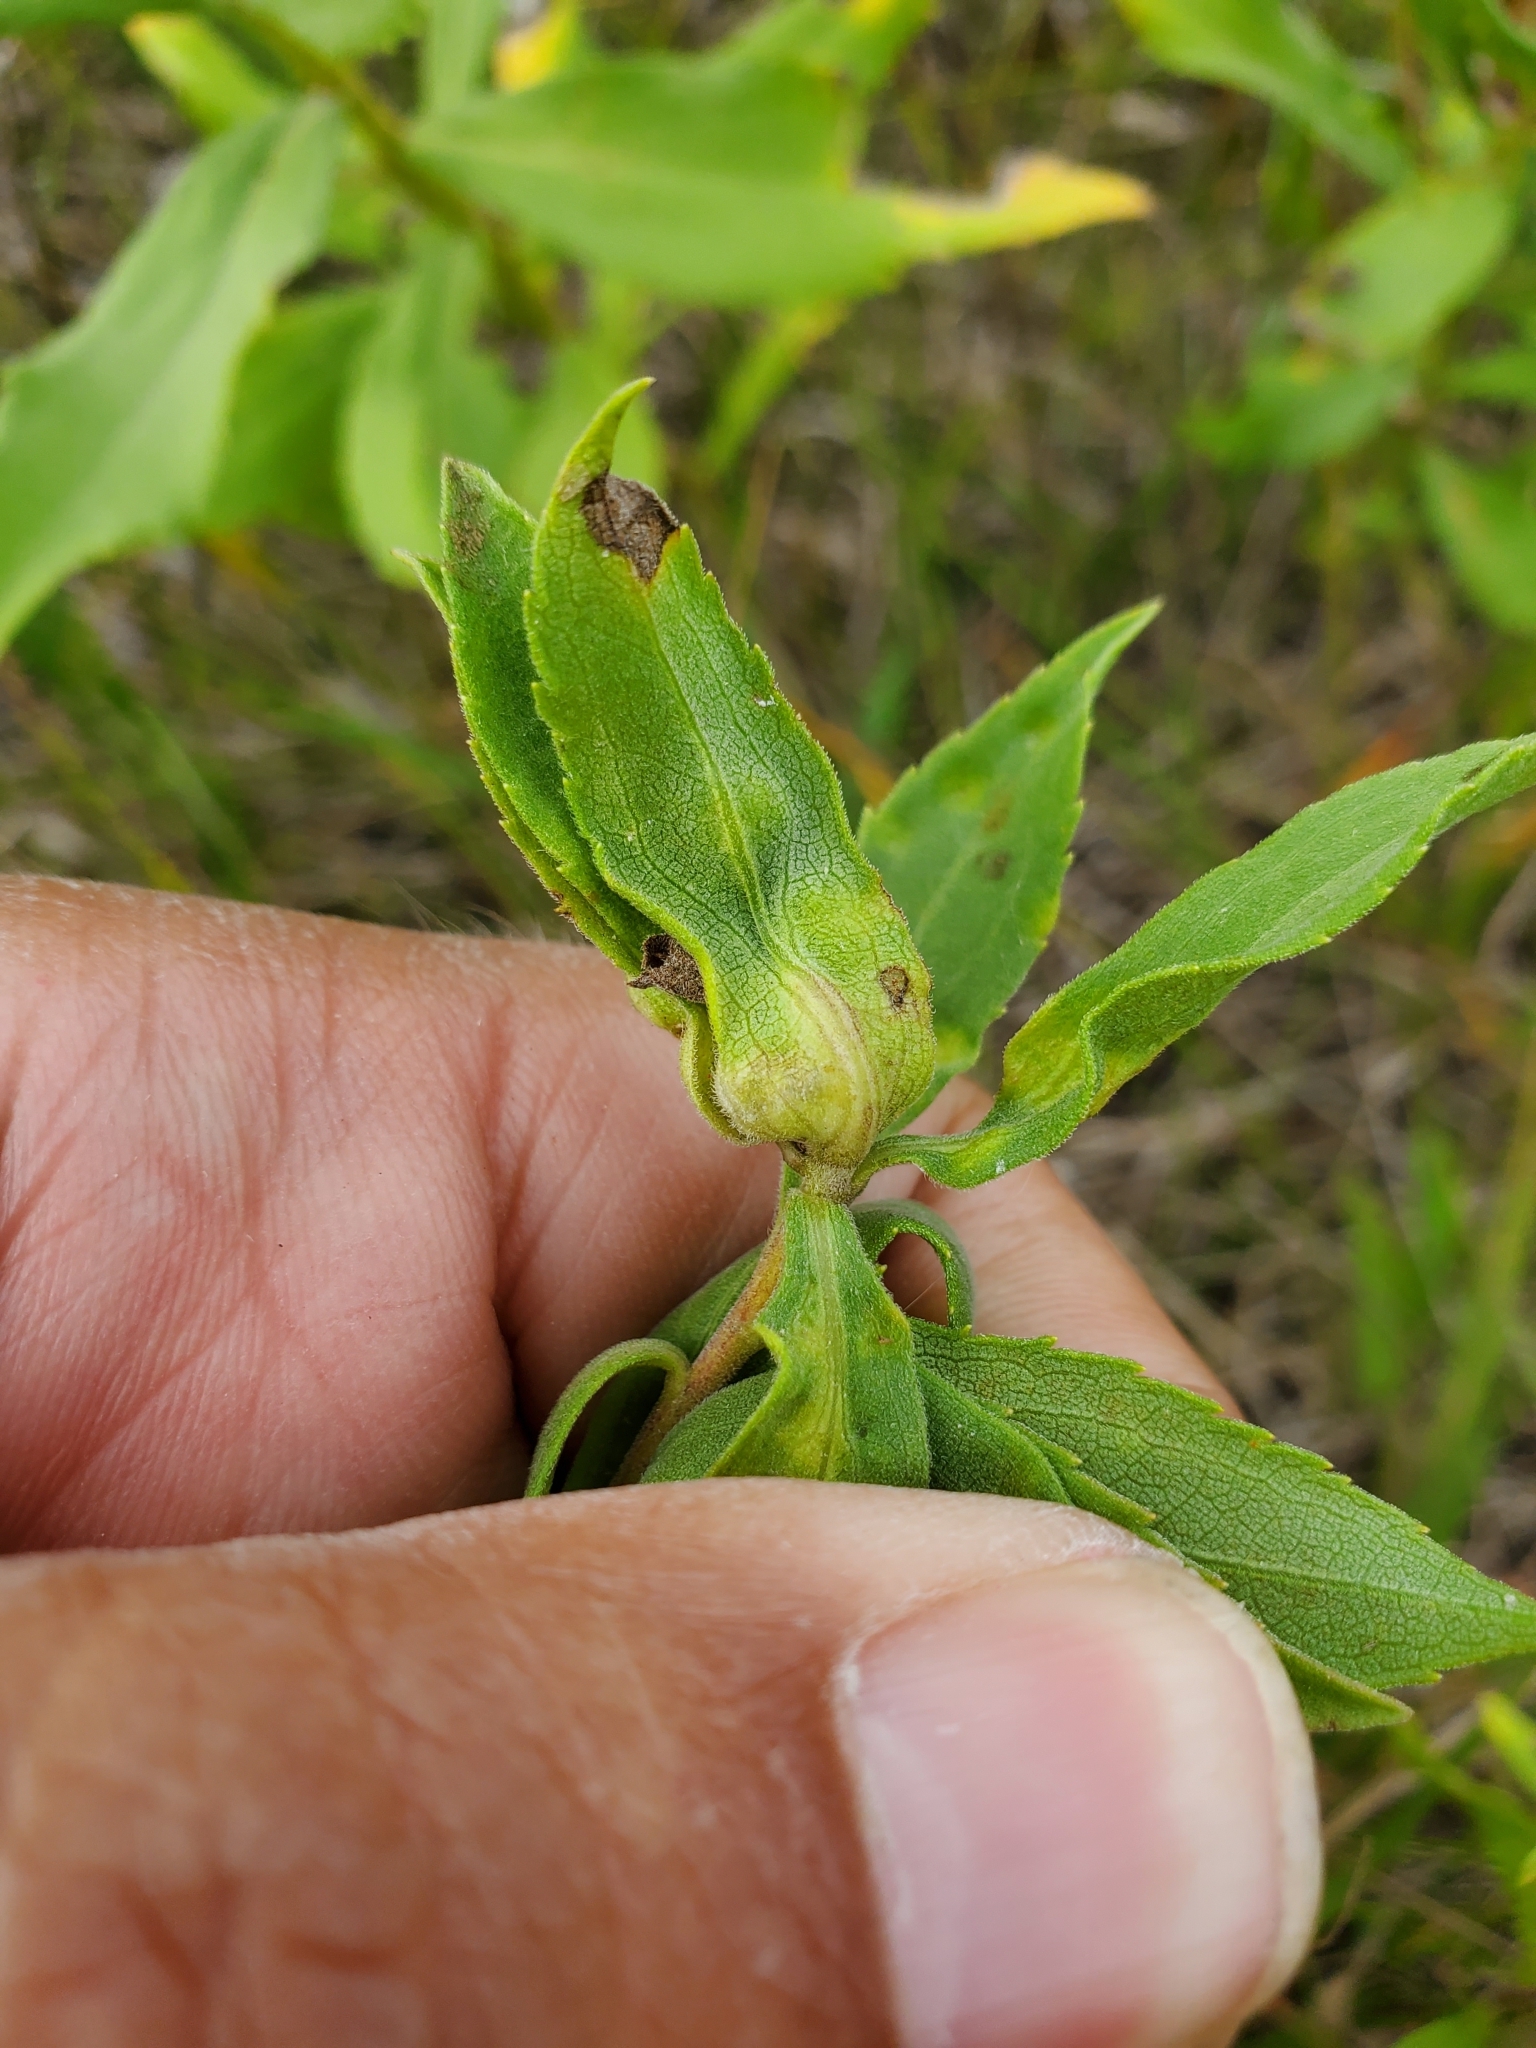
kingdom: Animalia
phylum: Arthropoda
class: Insecta
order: Diptera
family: Cecidomyiidae
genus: Dasineura
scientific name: Dasineura folliculi
